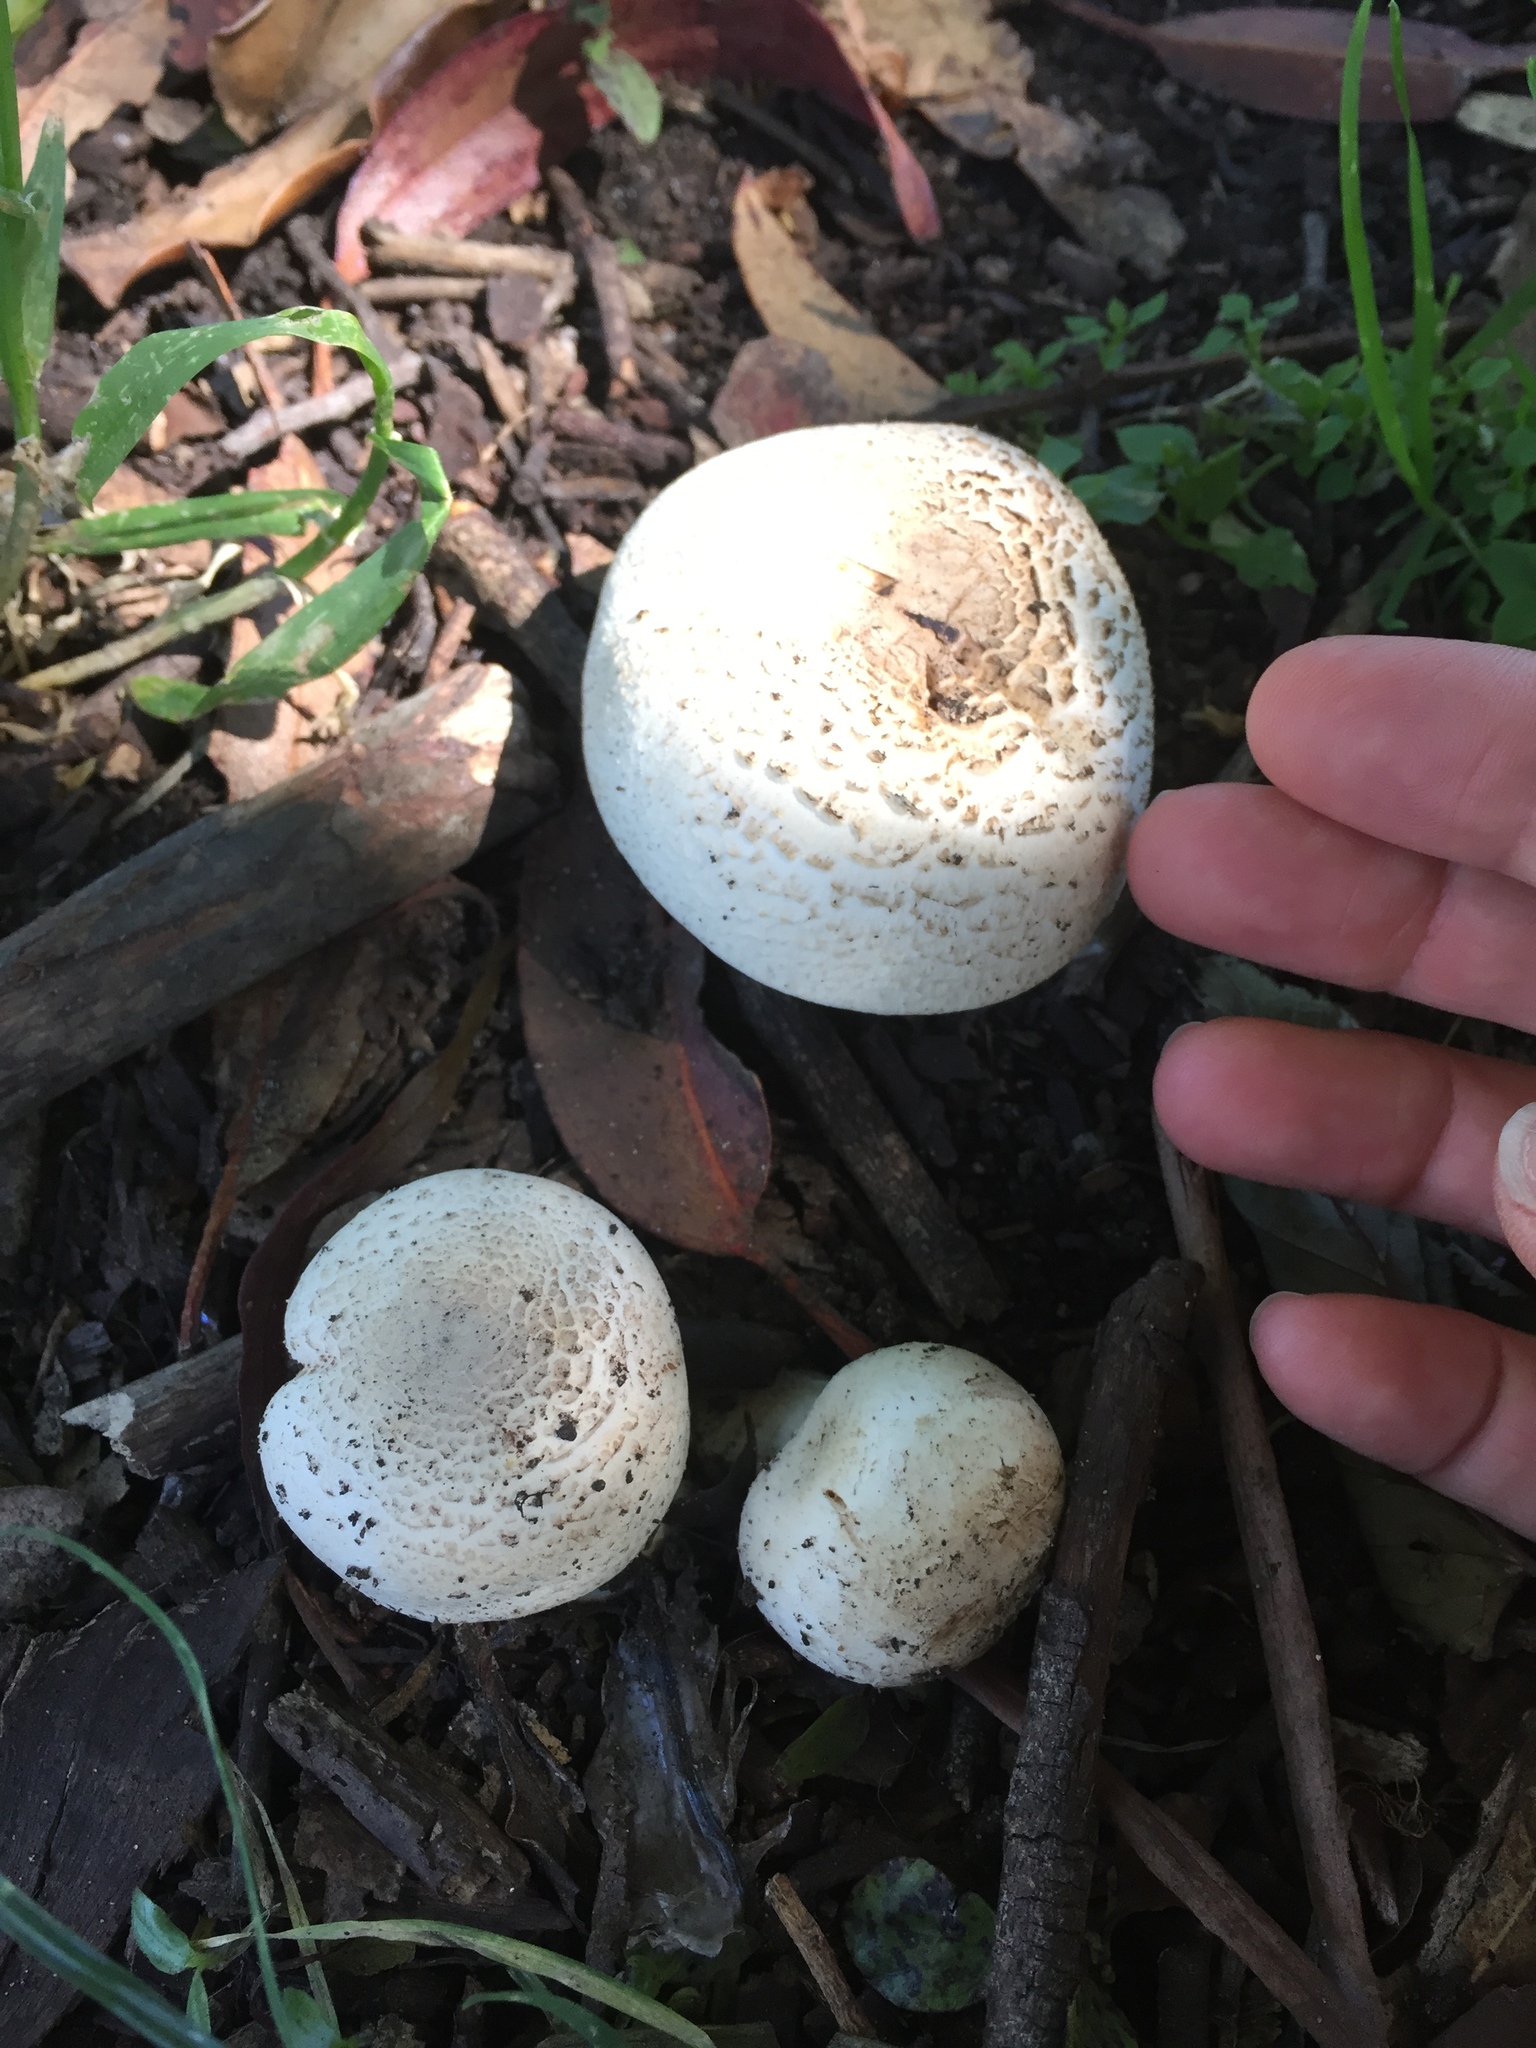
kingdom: Fungi
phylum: Basidiomycota
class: Agaricomycetes
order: Agaricales
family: Agaricaceae
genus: Agaricus
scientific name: Agaricus xanthodermus
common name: Yellow stainer
